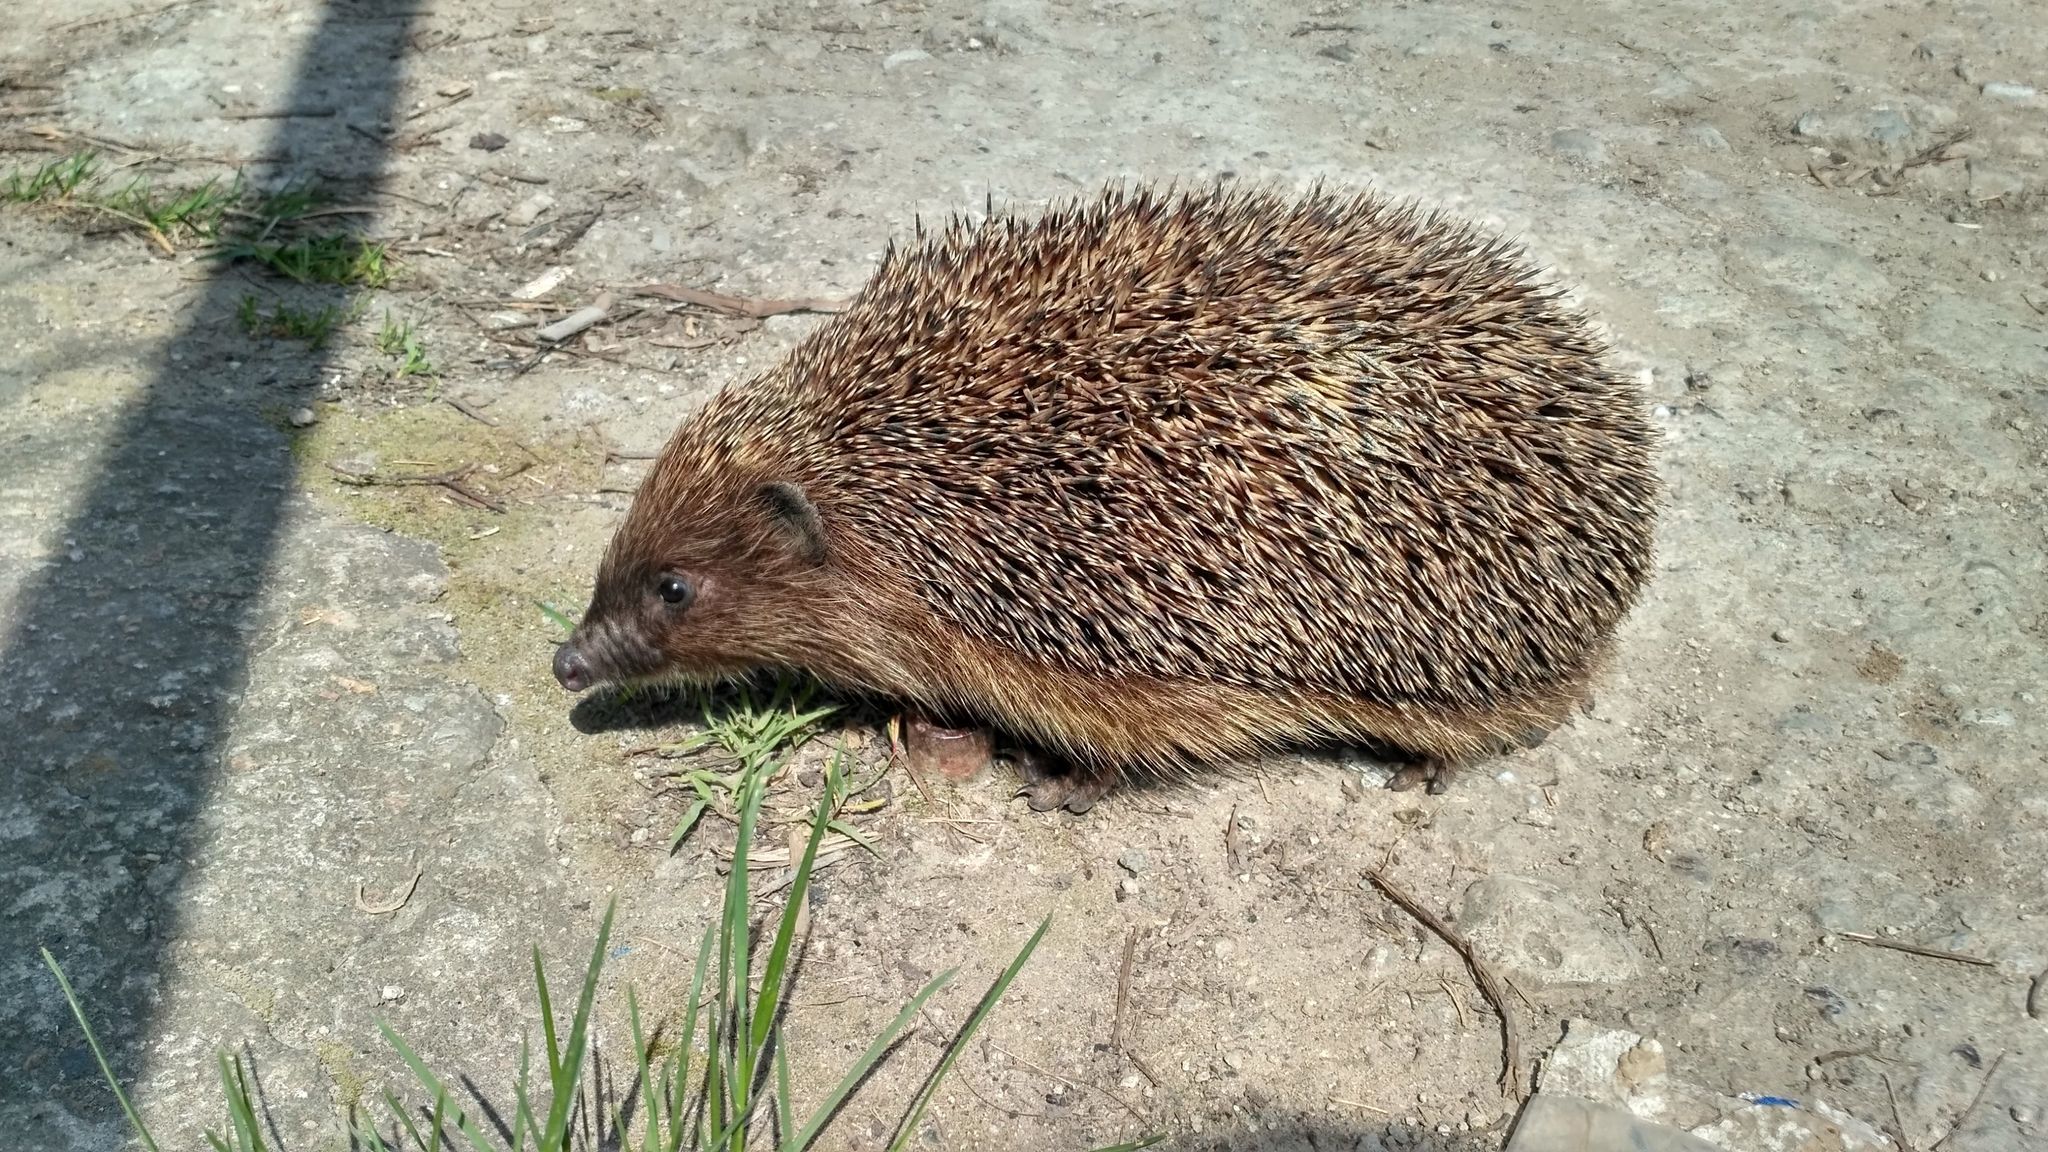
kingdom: Animalia
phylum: Chordata
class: Mammalia
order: Erinaceomorpha
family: Erinaceidae
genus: Erinaceus
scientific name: Erinaceus roumanicus
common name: Northern white-breasted hedgehog
